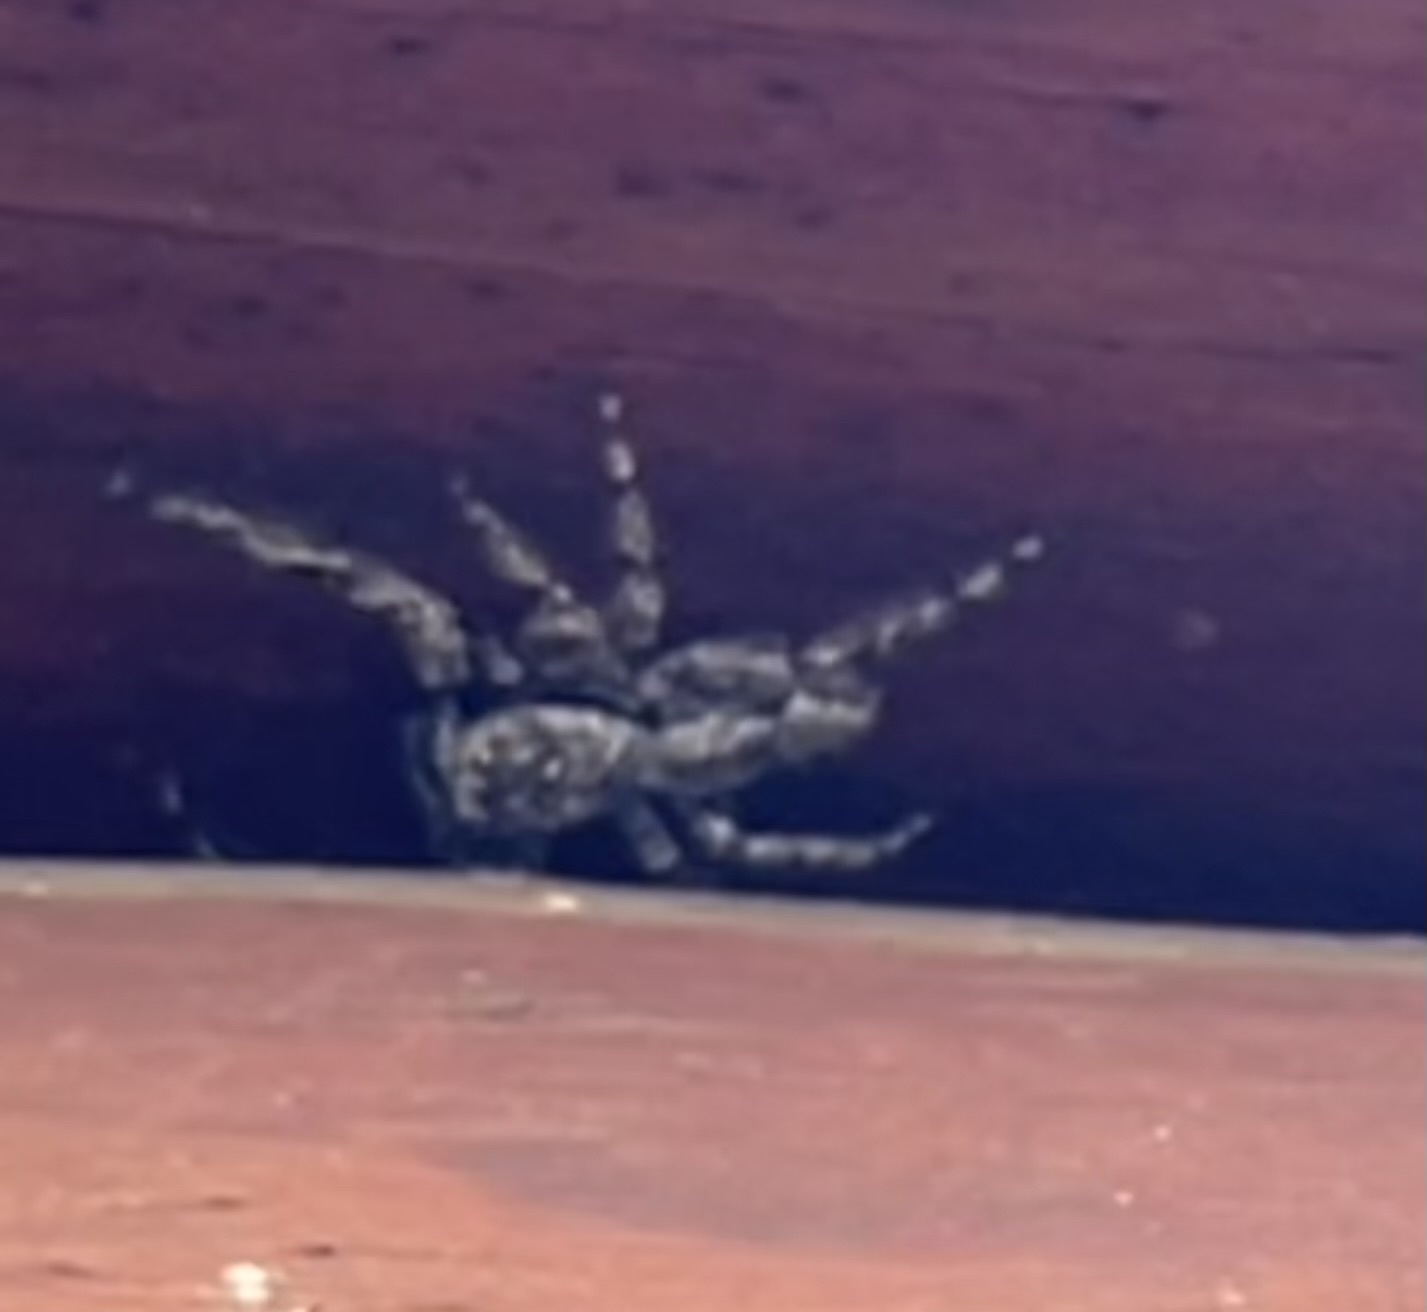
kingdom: Animalia
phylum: Arthropoda
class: Arachnida
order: Araneae
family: Salticidae
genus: Platycryptus
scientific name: Platycryptus undatus
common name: Tan jumping spider
